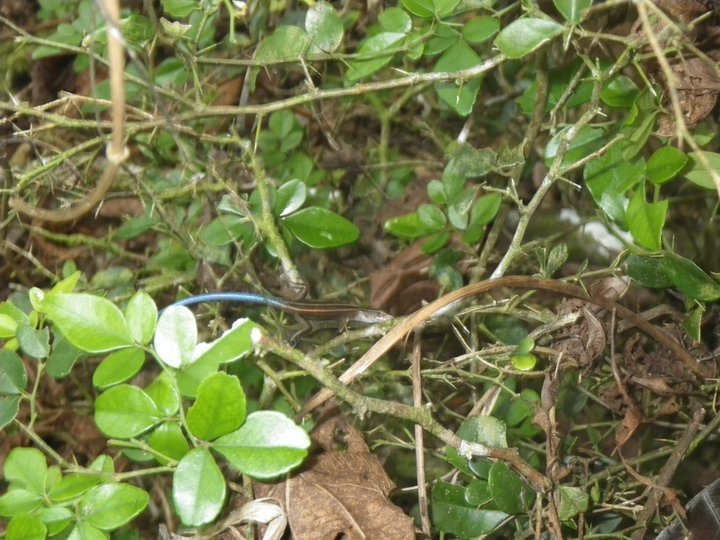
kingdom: Animalia
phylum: Chordata
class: Squamata
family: Scincidae
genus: Emoia
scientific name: Emoia caeruleocauda
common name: Pacific bluetail skink
